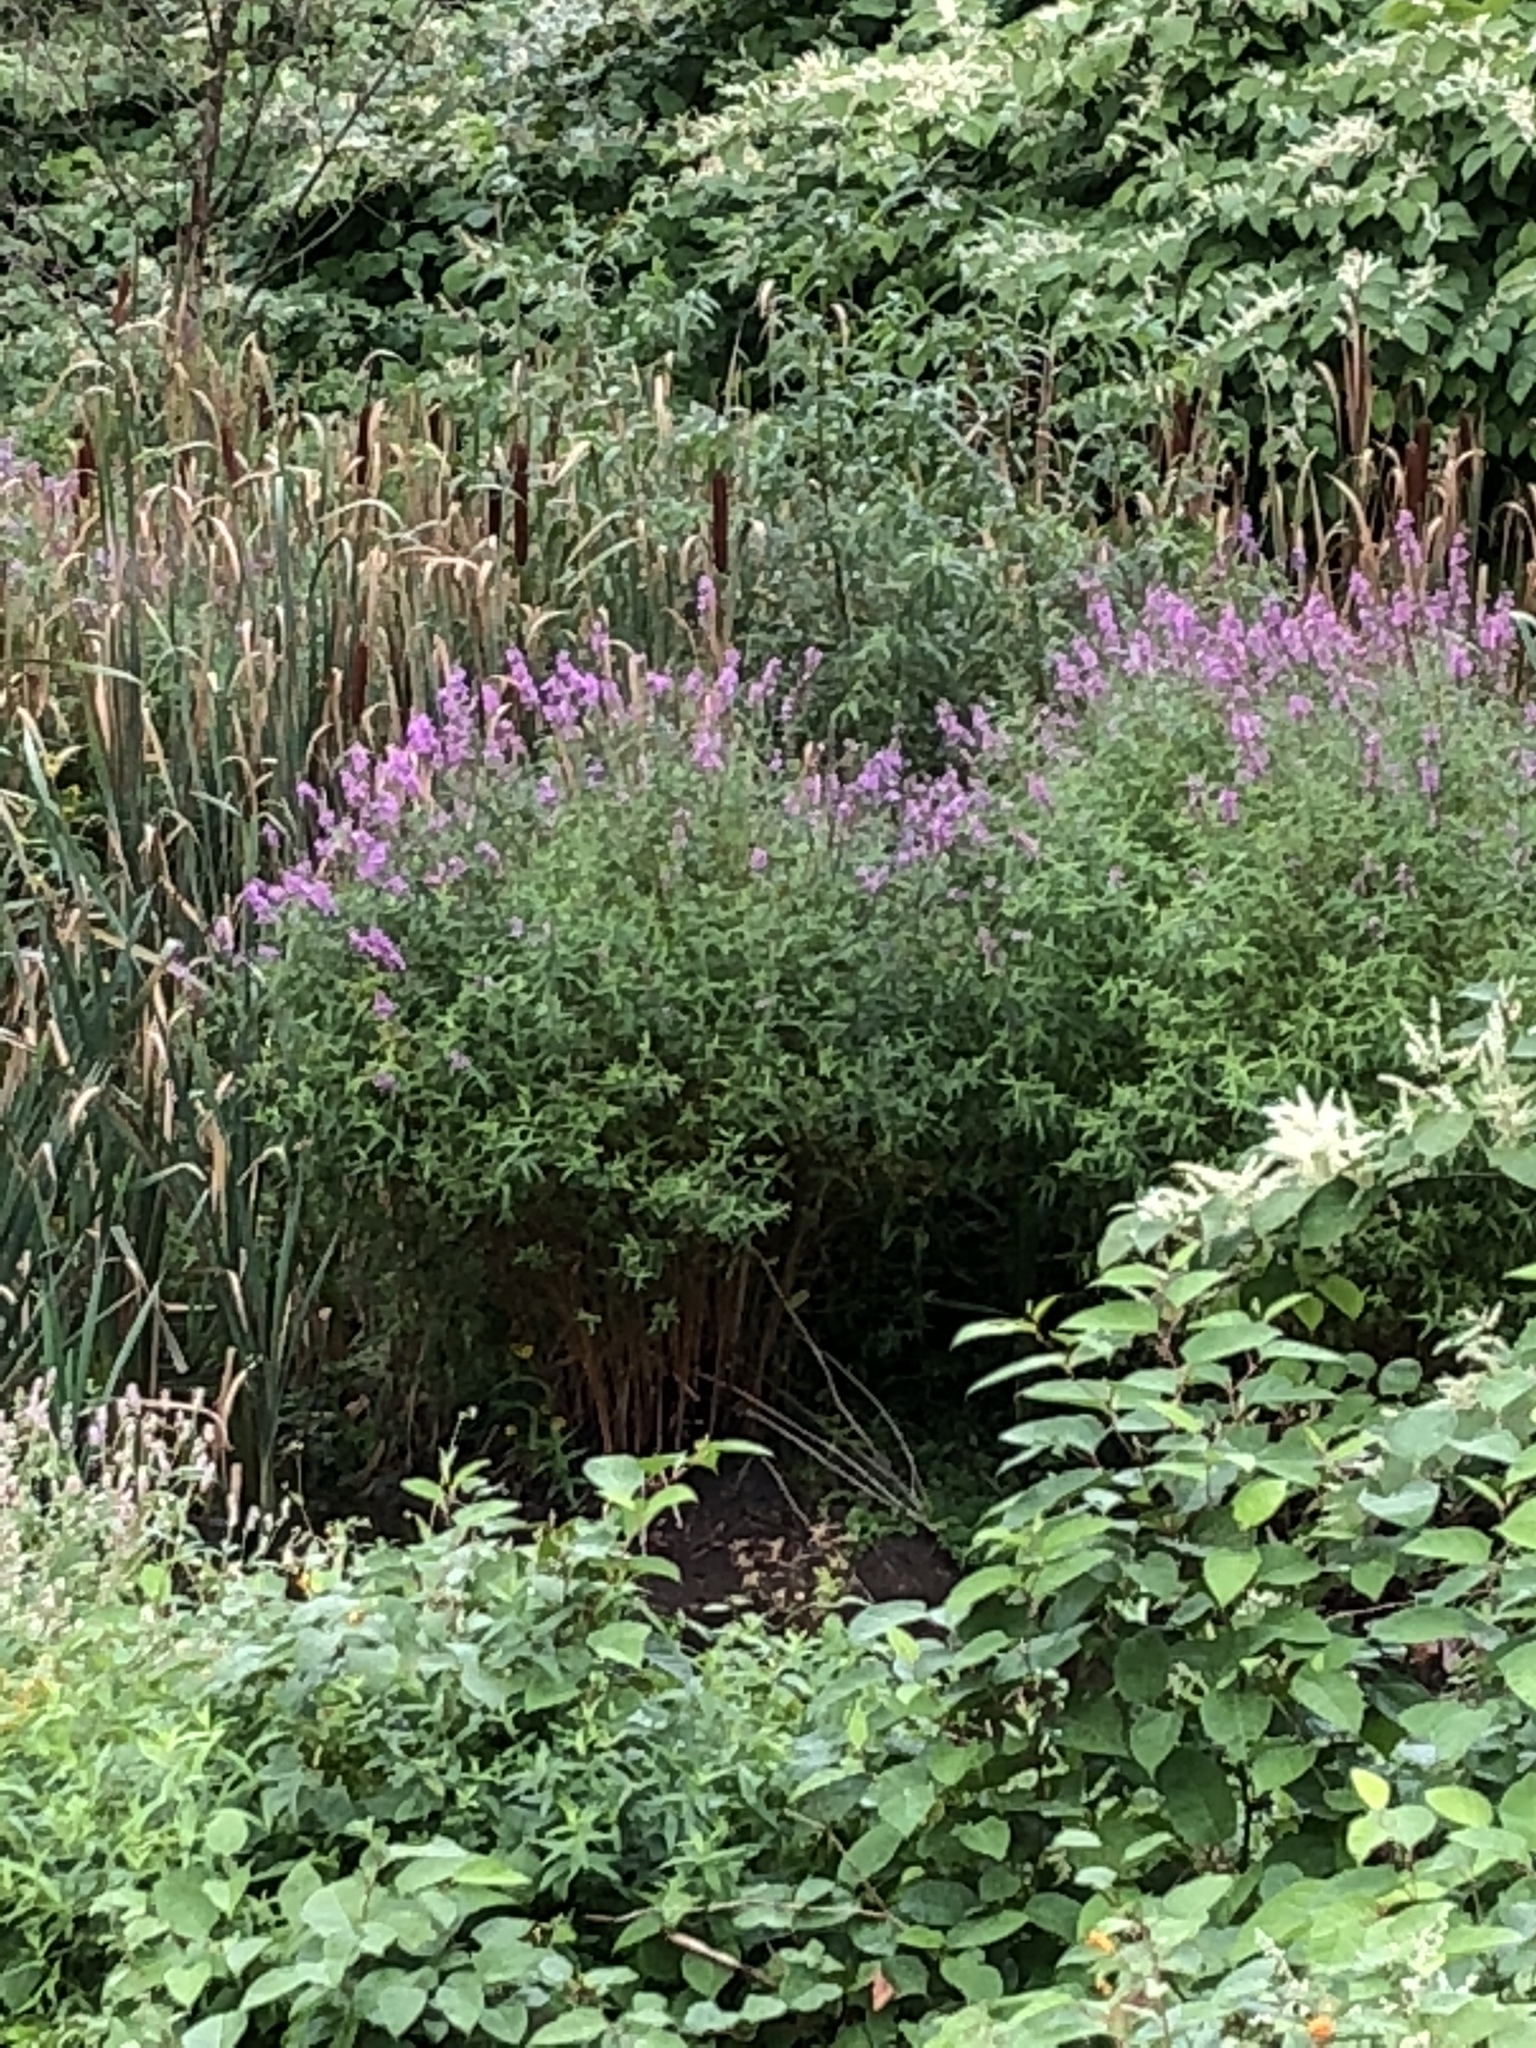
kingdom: Plantae
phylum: Tracheophyta
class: Magnoliopsida
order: Myrtales
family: Lythraceae
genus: Lythrum
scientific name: Lythrum salicaria
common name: Purple loosestrife
